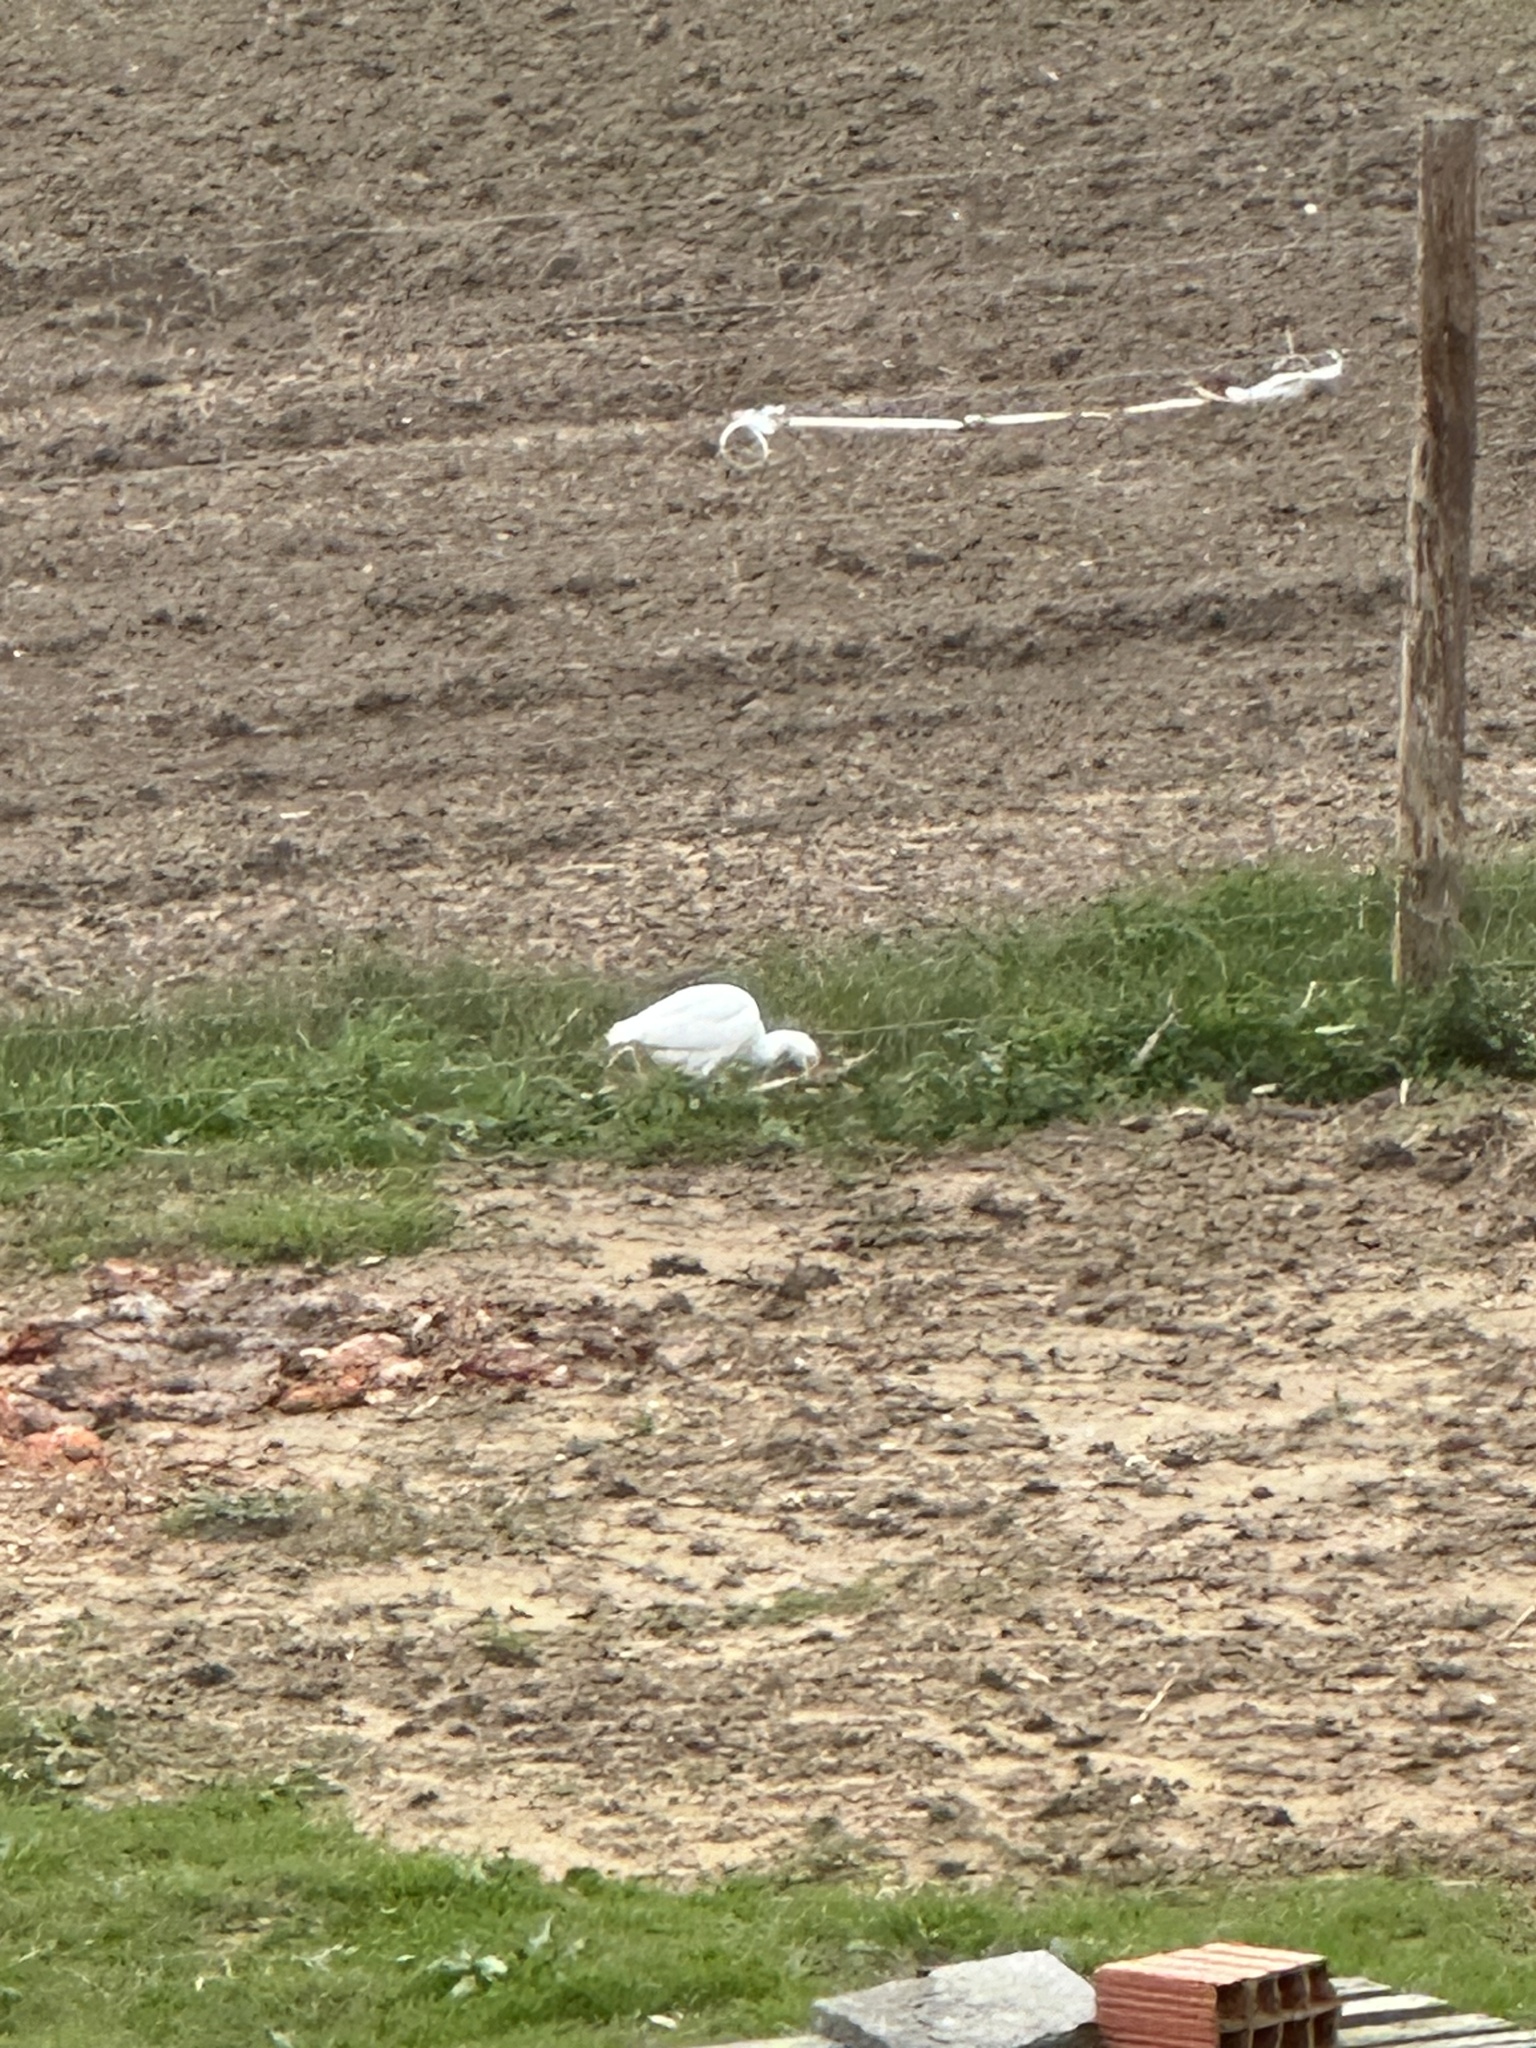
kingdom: Animalia
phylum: Chordata
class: Aves
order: Pelecaniformes
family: Ardeidae
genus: Bubulcus
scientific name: Bubulcus ibis
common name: Cattle egret
